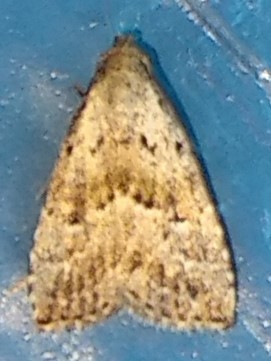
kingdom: Animalia
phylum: Arthropoda
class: Insecta
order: Lepidoptera
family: Erebidae
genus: Hypenodes
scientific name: Hypenodes fractilinea
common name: Broken-line hypenodes moth
